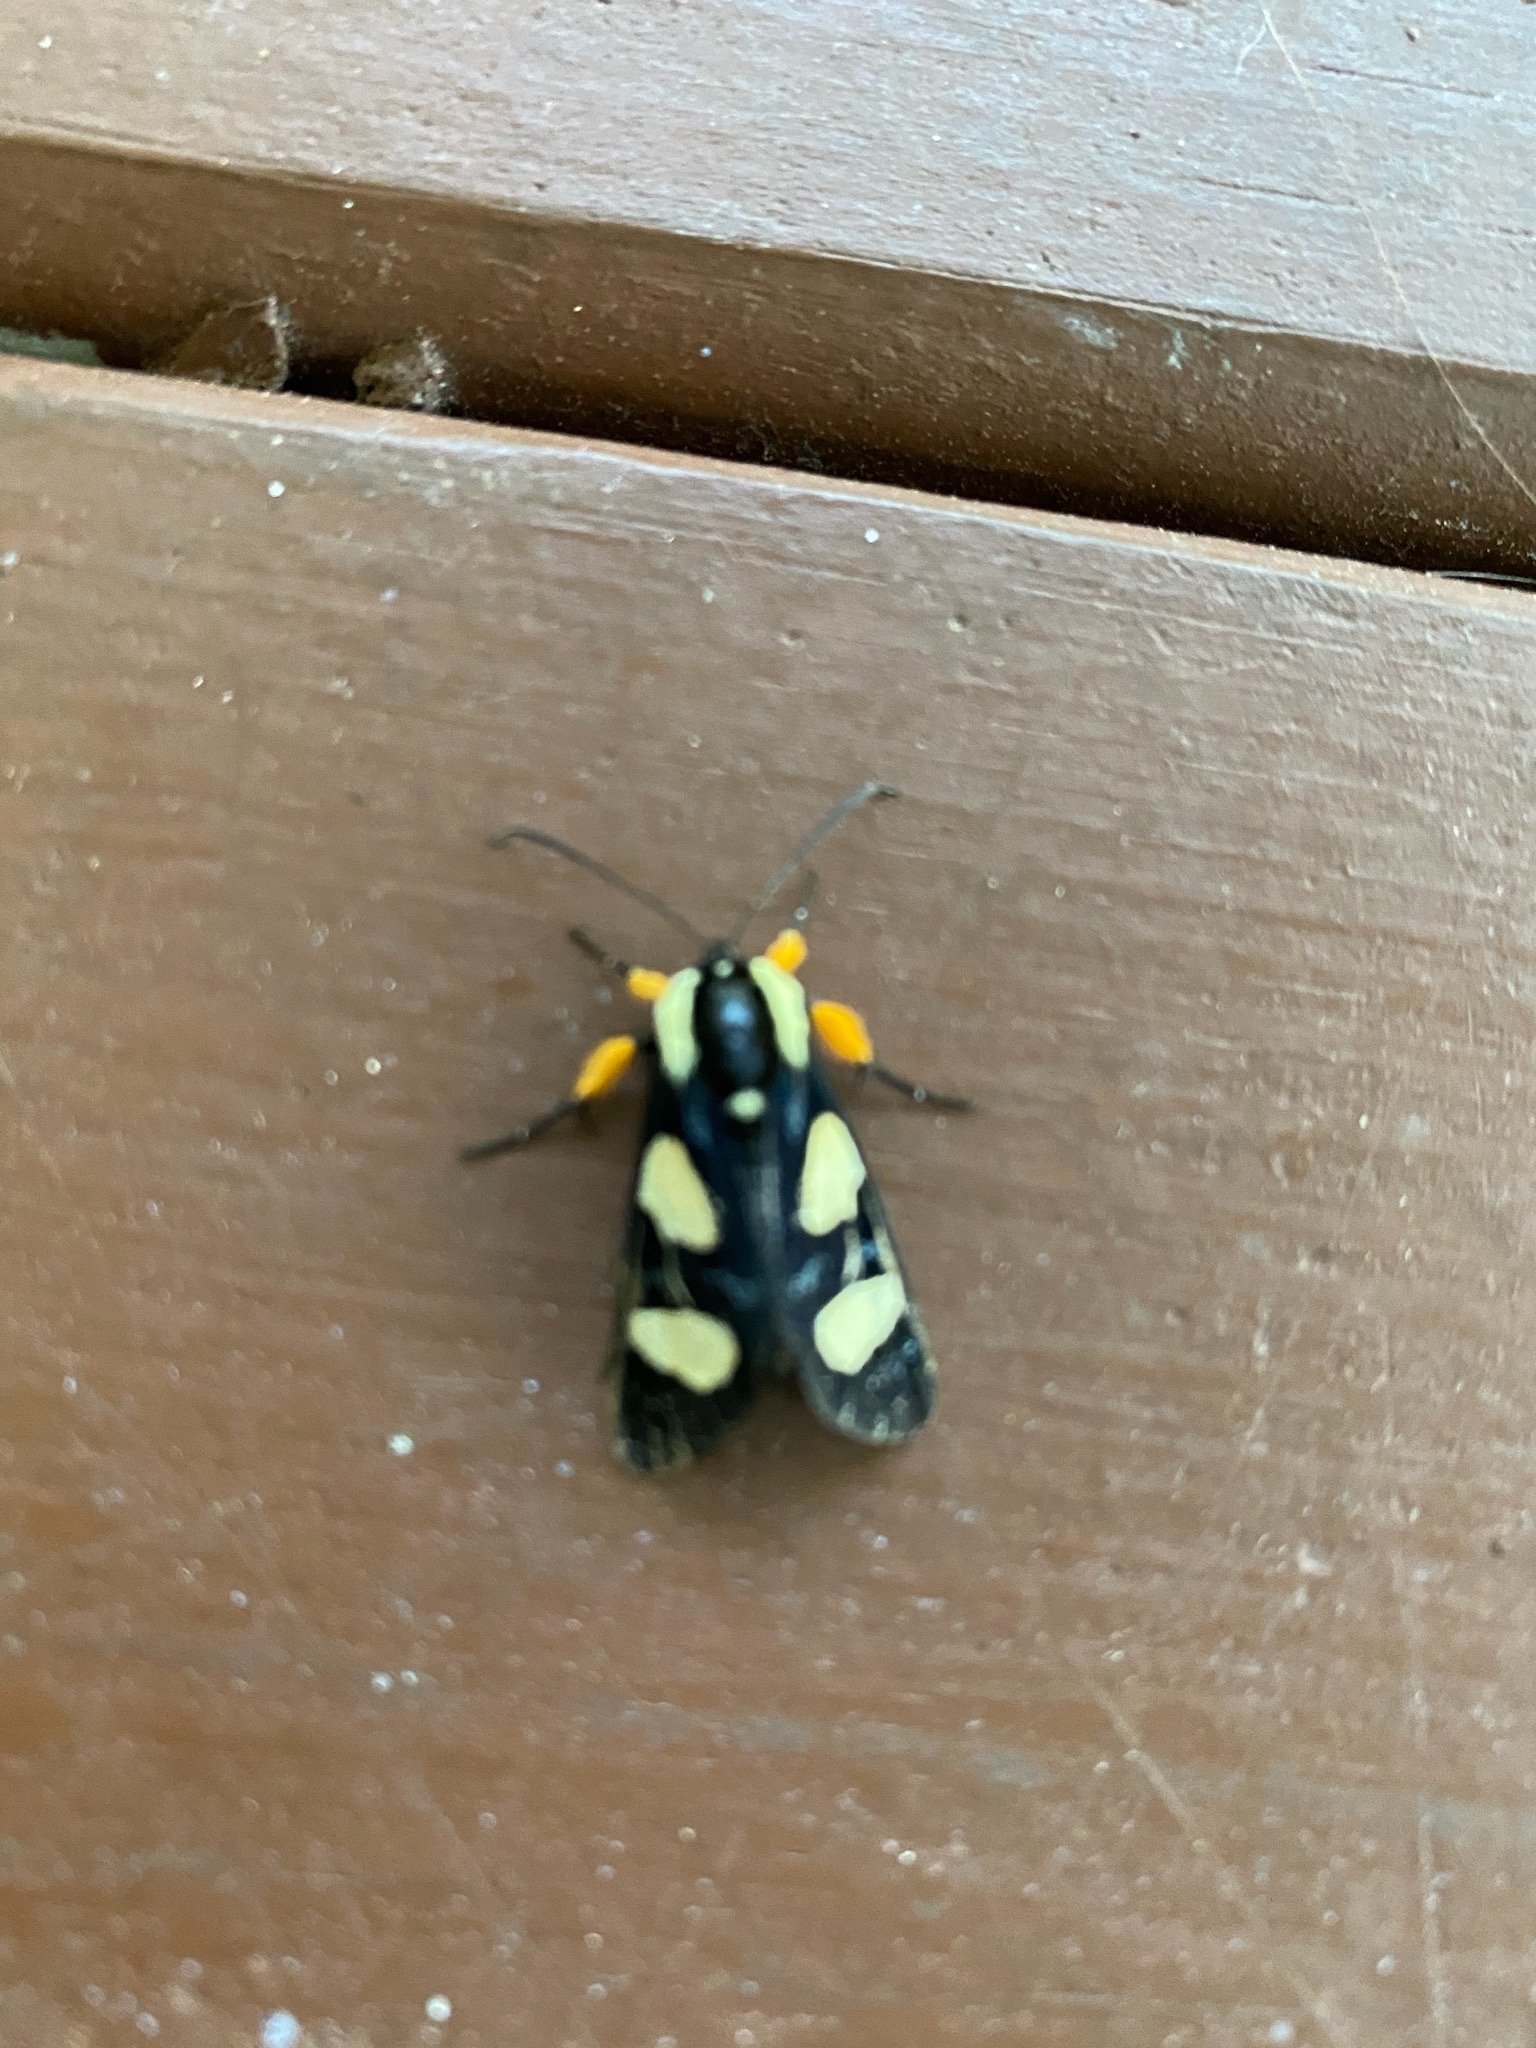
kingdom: Animalia
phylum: Arthropoda
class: Insecta
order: Lepidoptera
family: Noctuidae
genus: Alypia
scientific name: Alypia wittfeldii
